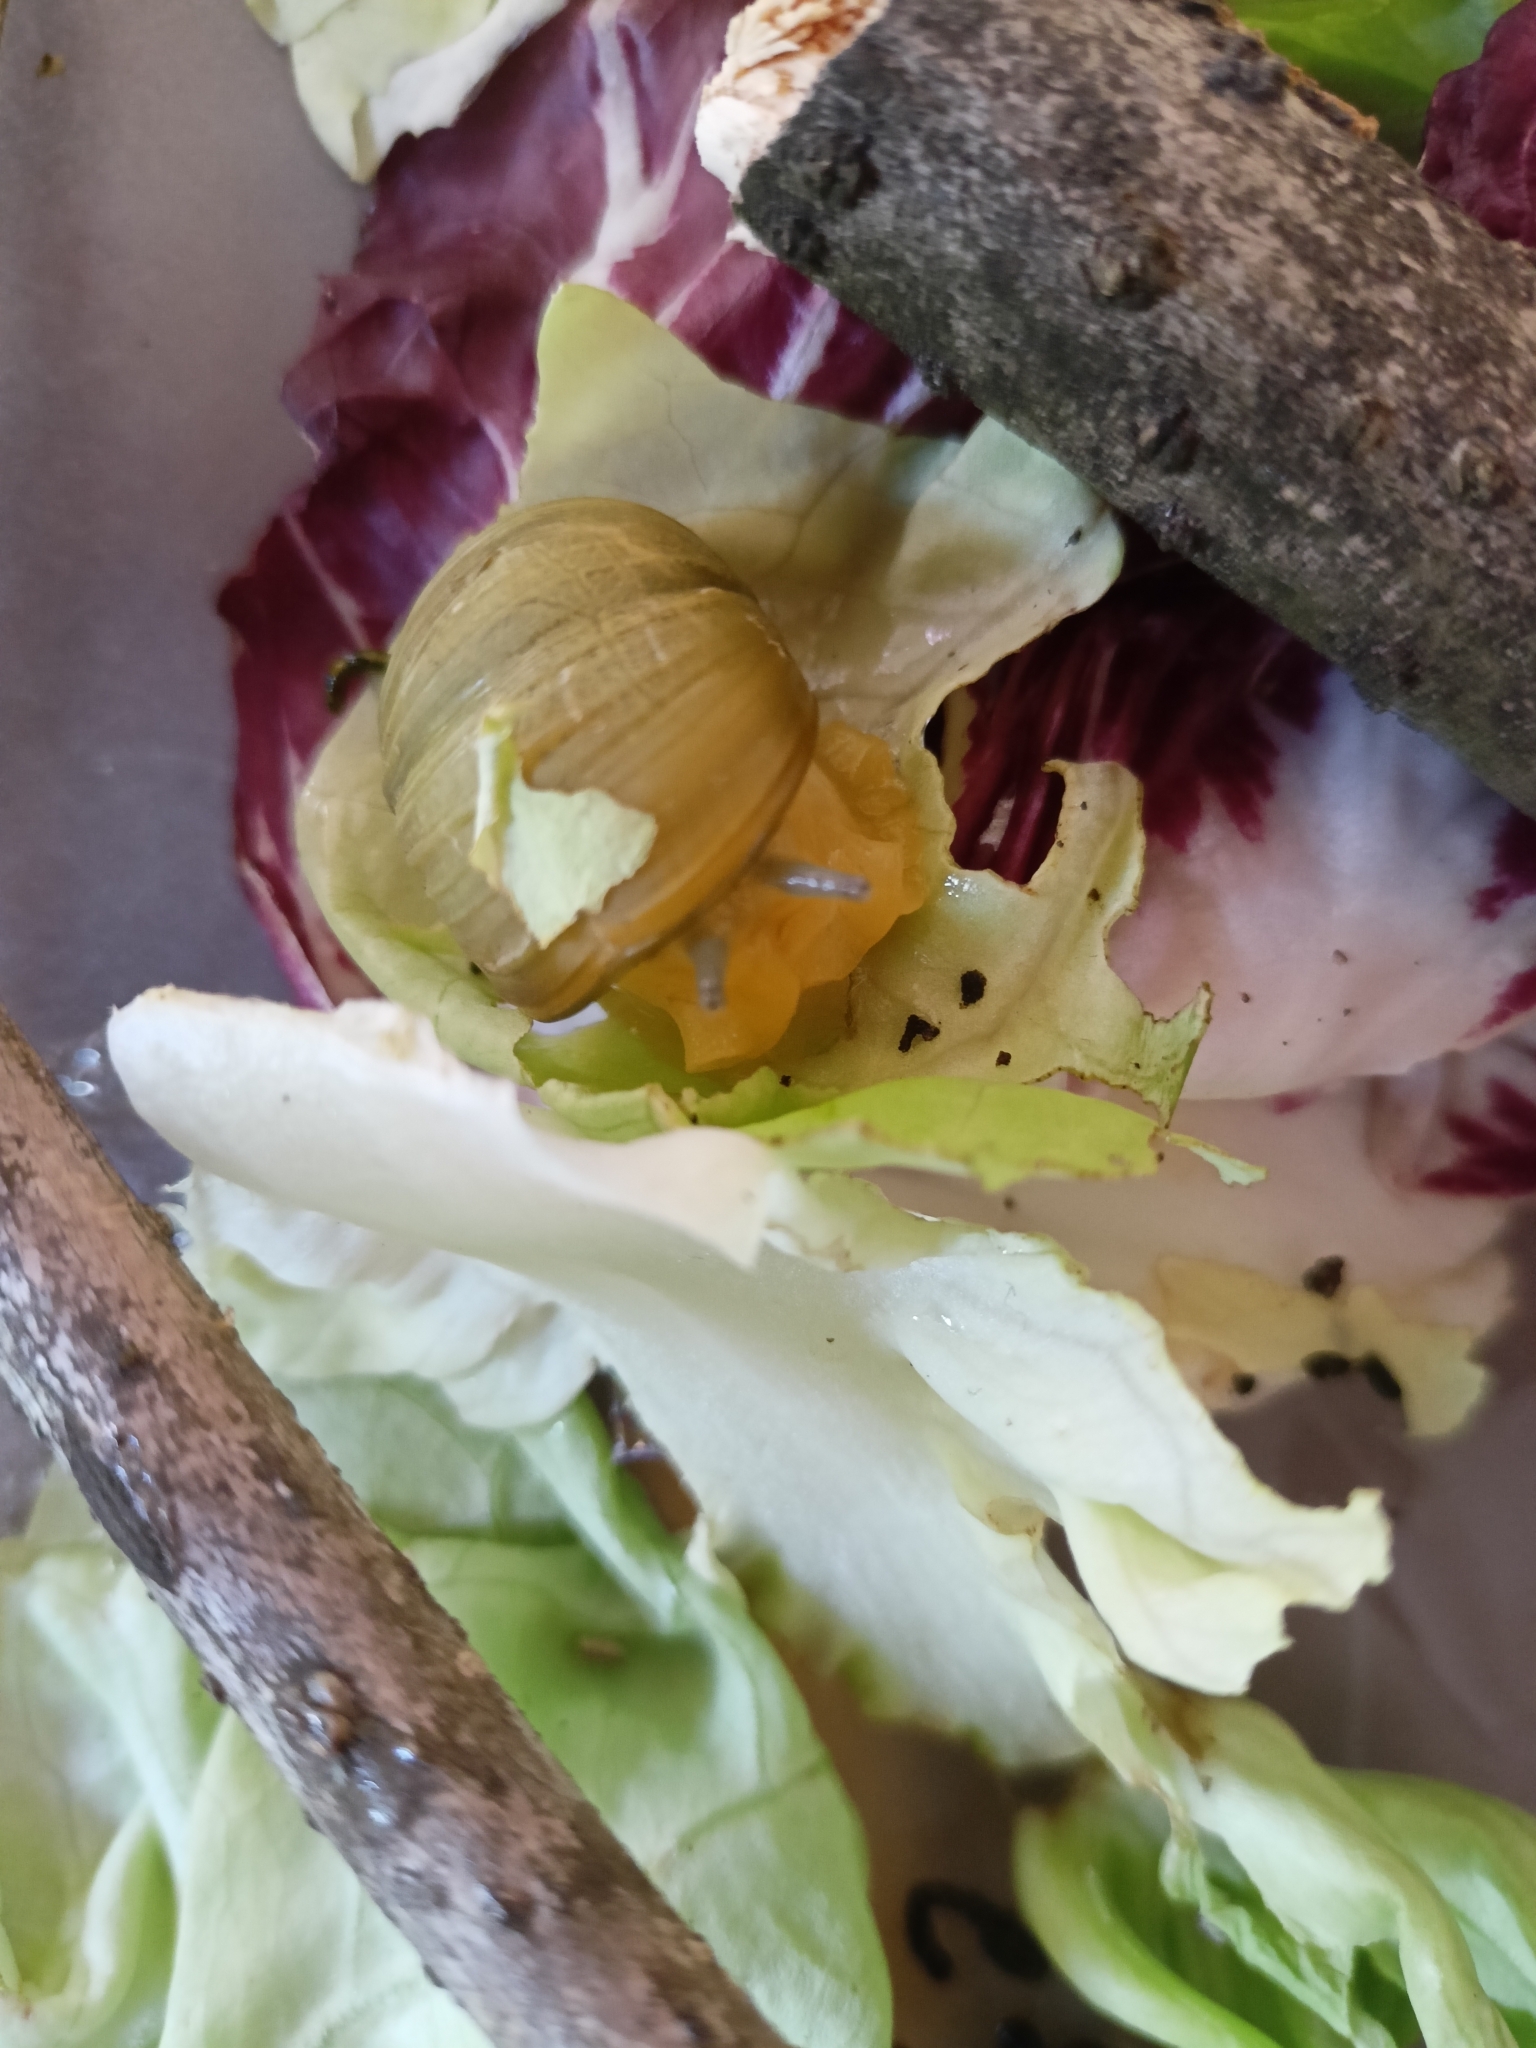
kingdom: Animalia
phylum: Mollusca
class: Gastropoda
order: Stylommatophora
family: Helicidae
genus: Cantareus
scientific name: Cantareus apertus
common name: Green gardensnail
